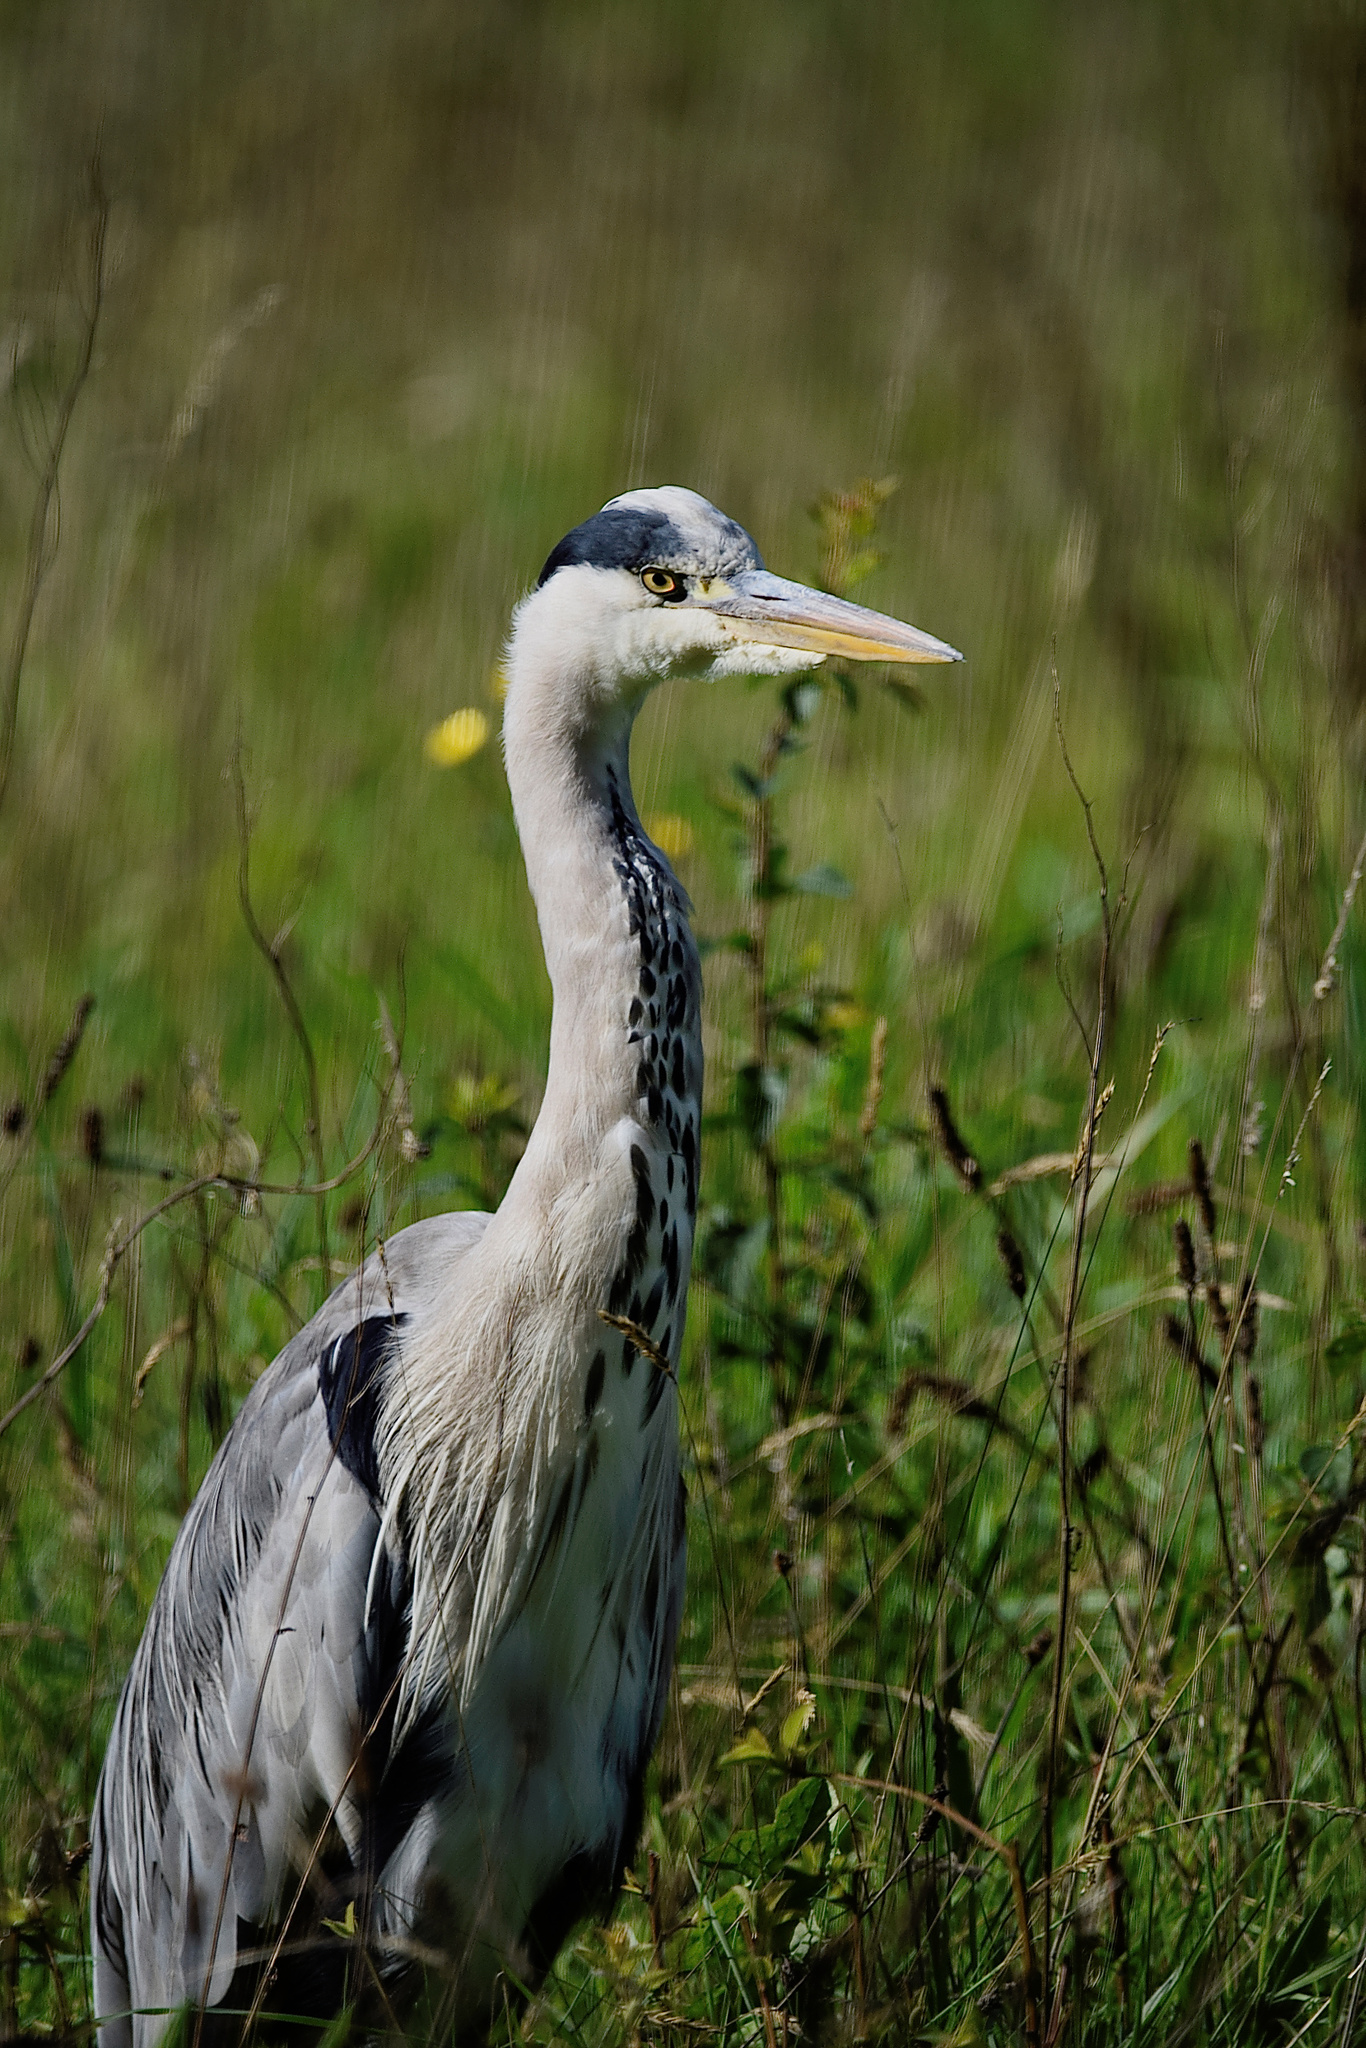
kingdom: Animalia
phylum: Chordata
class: Aves
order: Pelecaniformes
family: Ardeidae
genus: Ardea
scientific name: Ardea cinerea
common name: Grey heron
